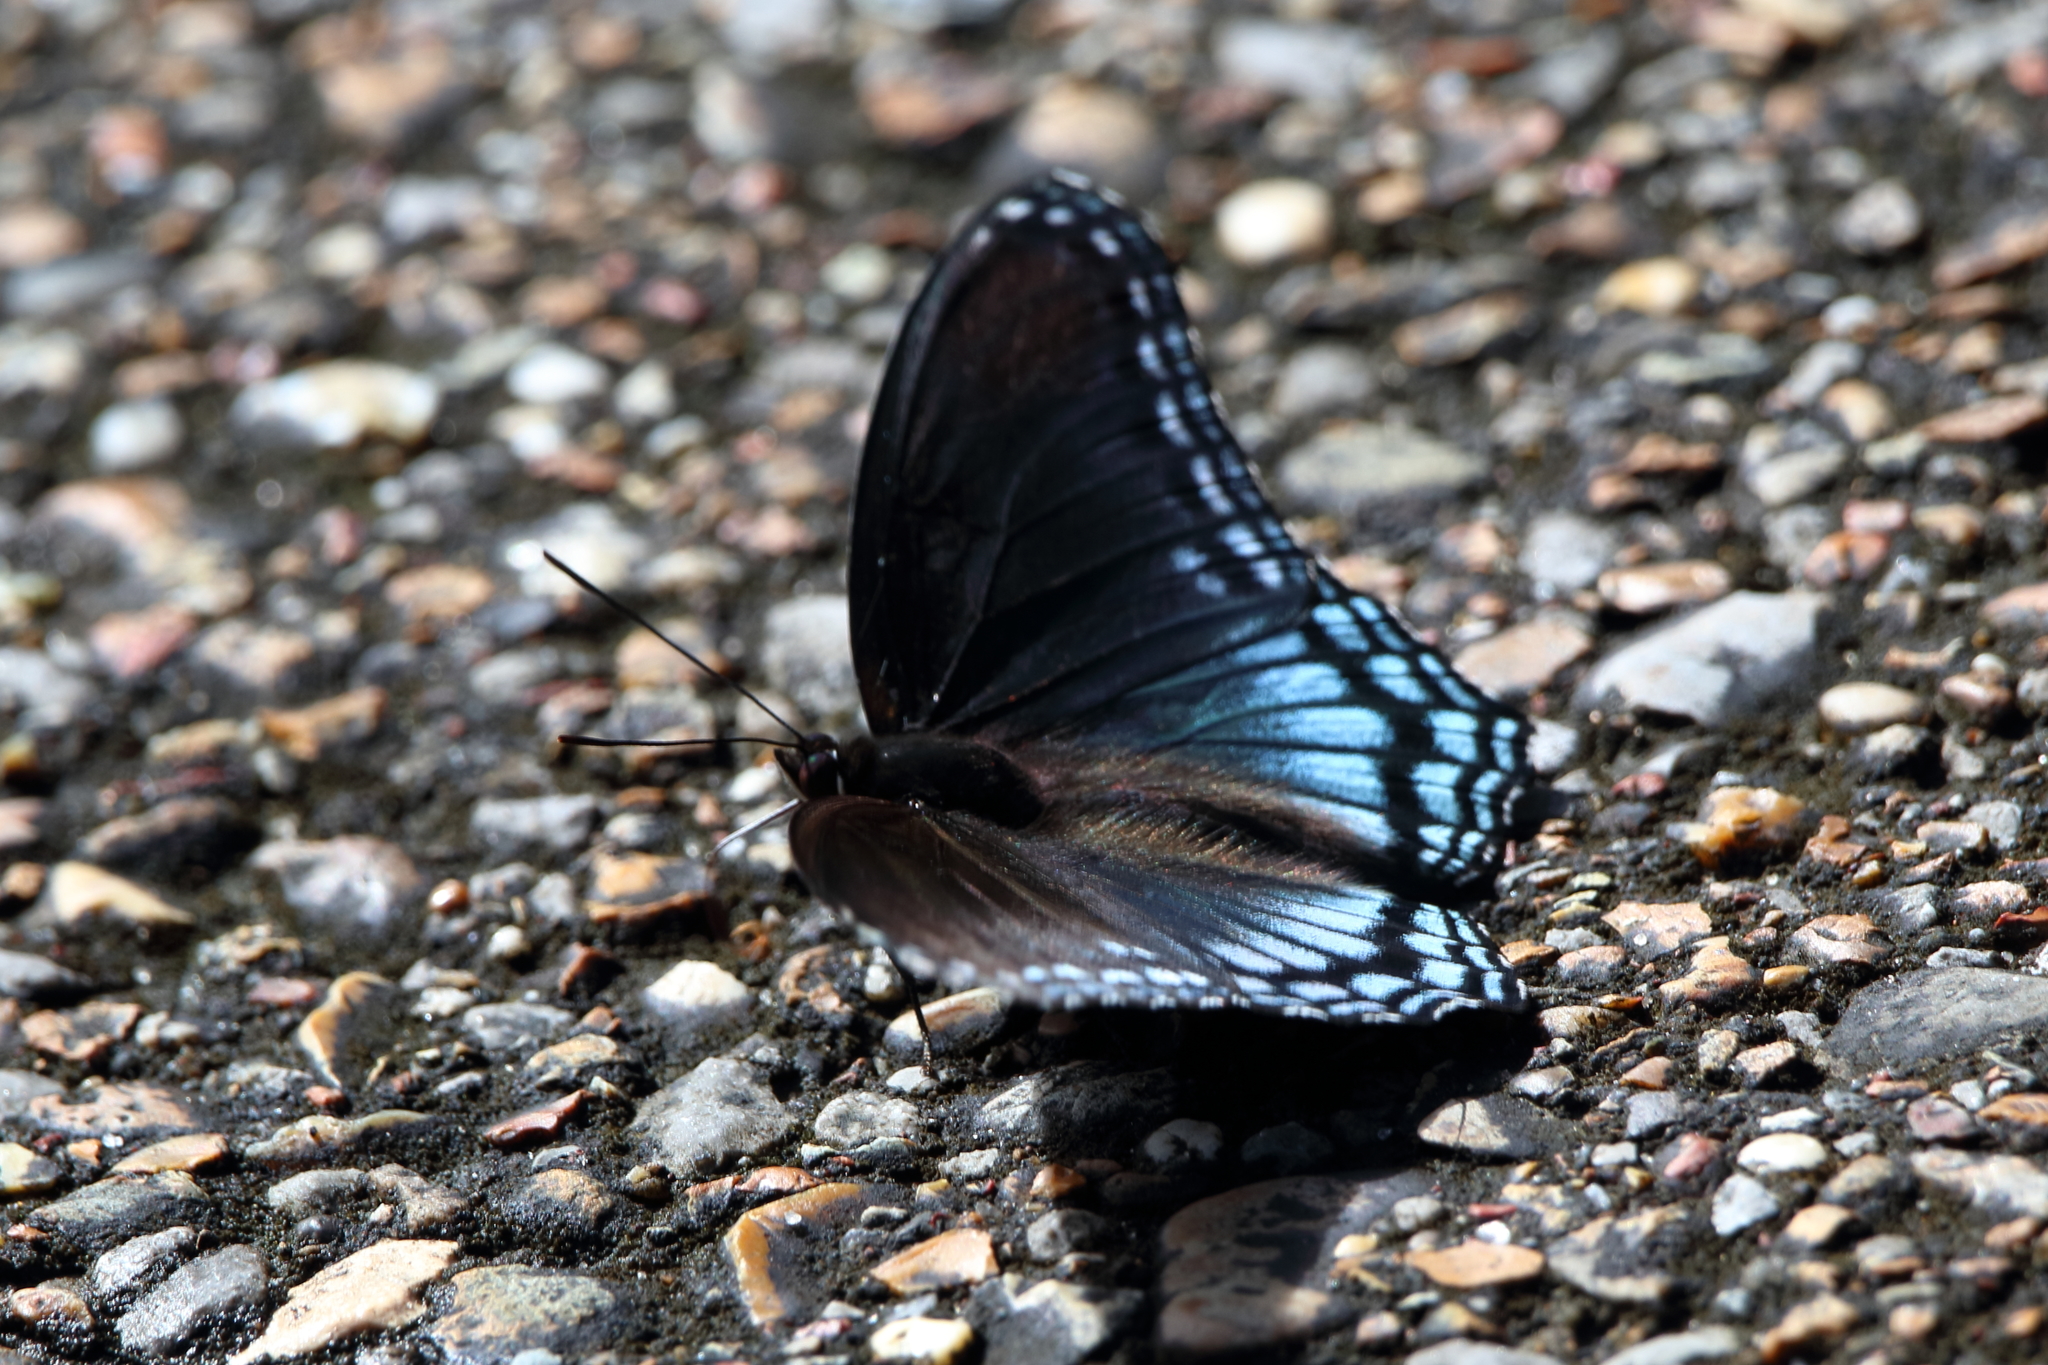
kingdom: Animalia
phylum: Arthropoda
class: Insecta
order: Lepidoptera
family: Nymphalidae
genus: Limenitis
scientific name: Limenitis astyanax
